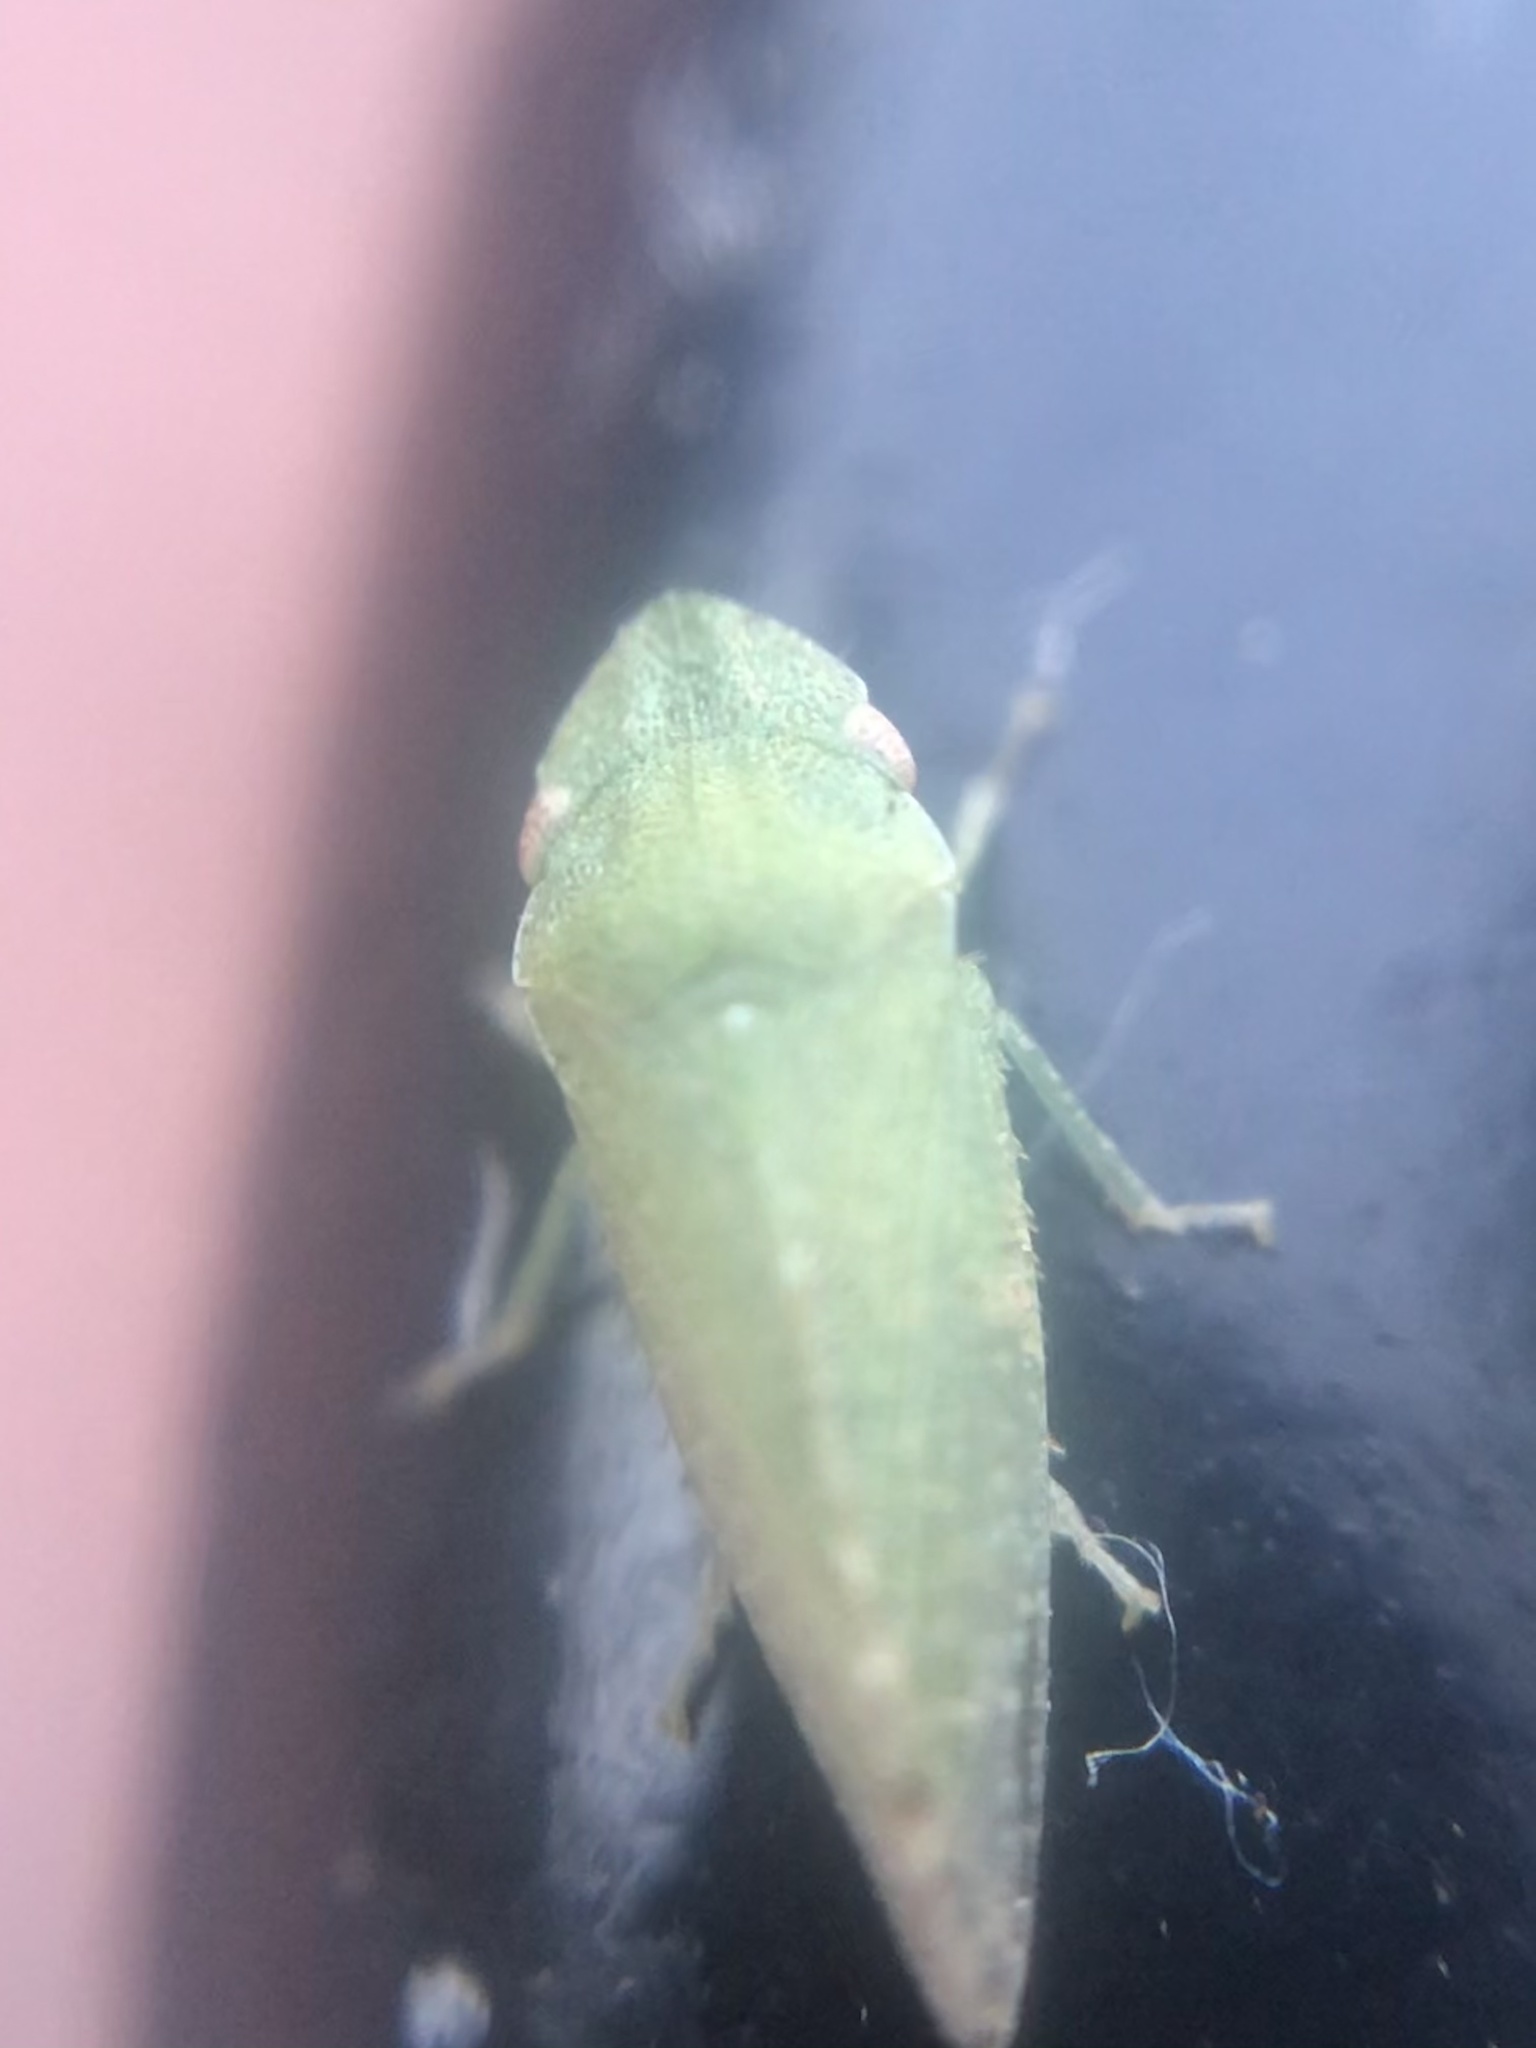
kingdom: Animalia
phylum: Arthropoda
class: Insecta
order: Hemiptera
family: Cicadellidae
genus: Xerophloea
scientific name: Xerophloea peltata
